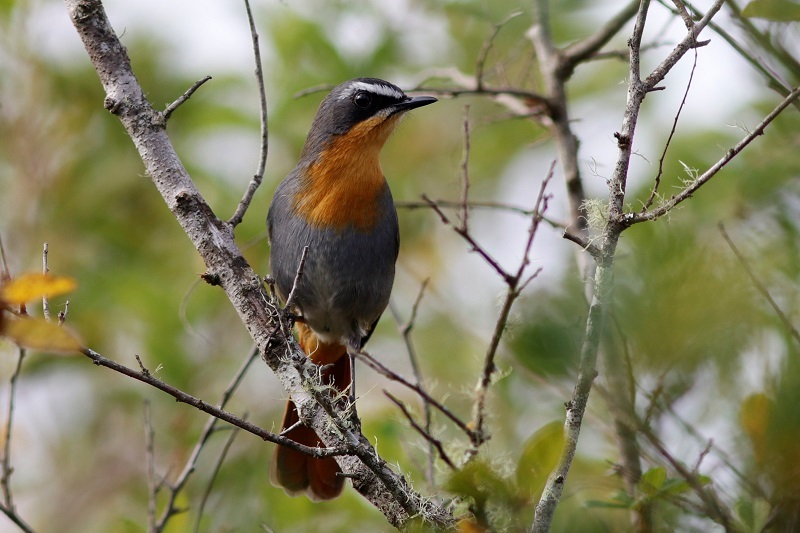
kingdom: Animalia
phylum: Chordata
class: Aves
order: Passeriformes
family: Muscicapidae
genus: Cossypha
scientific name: Cossypha caffra
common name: Cape robin-chat
